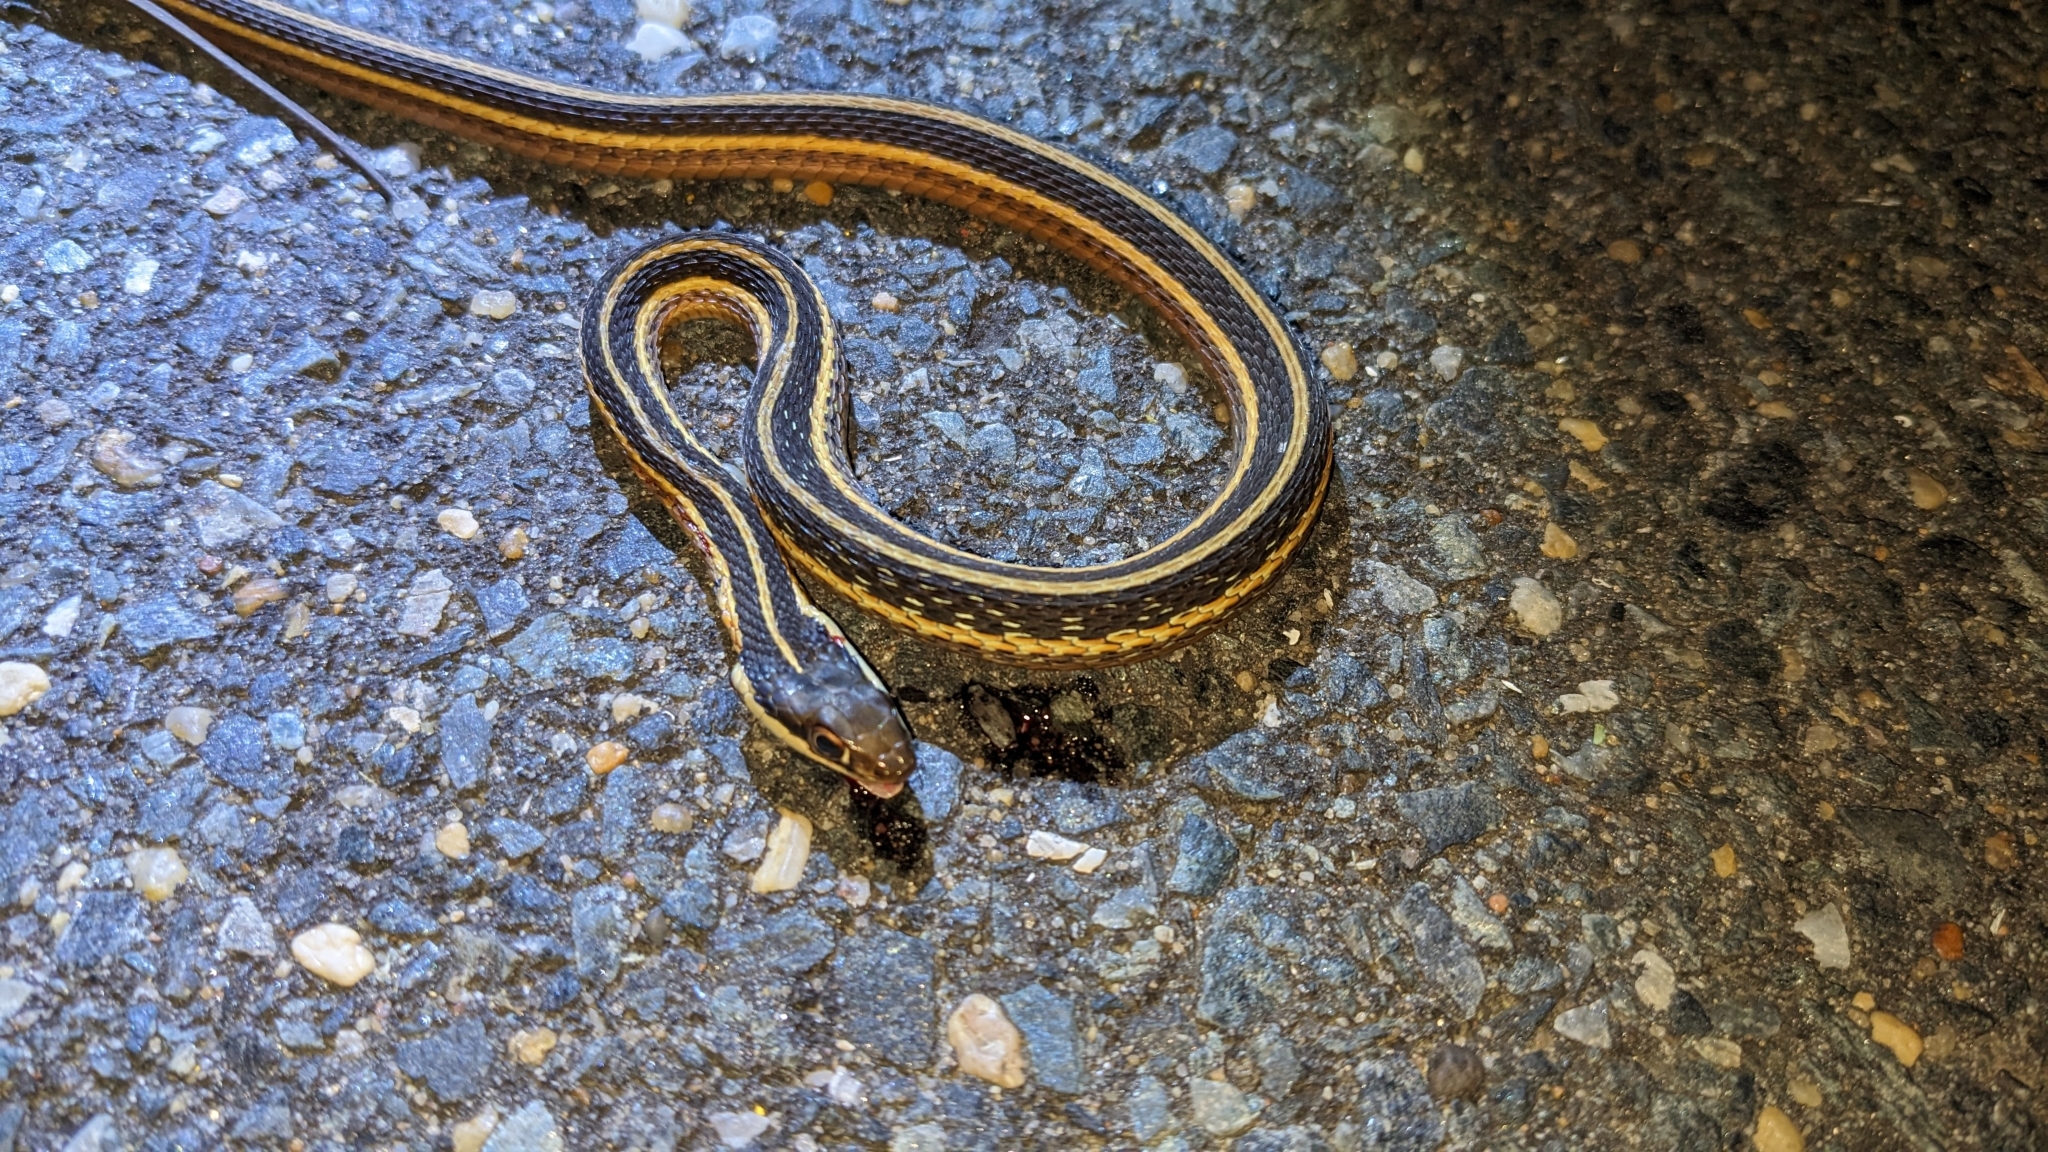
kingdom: Animalia
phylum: Chordata
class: Squamata
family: Colubridae
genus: Thamnophis
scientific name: Thamnophis saurita
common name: Eastern ribbonsnake
